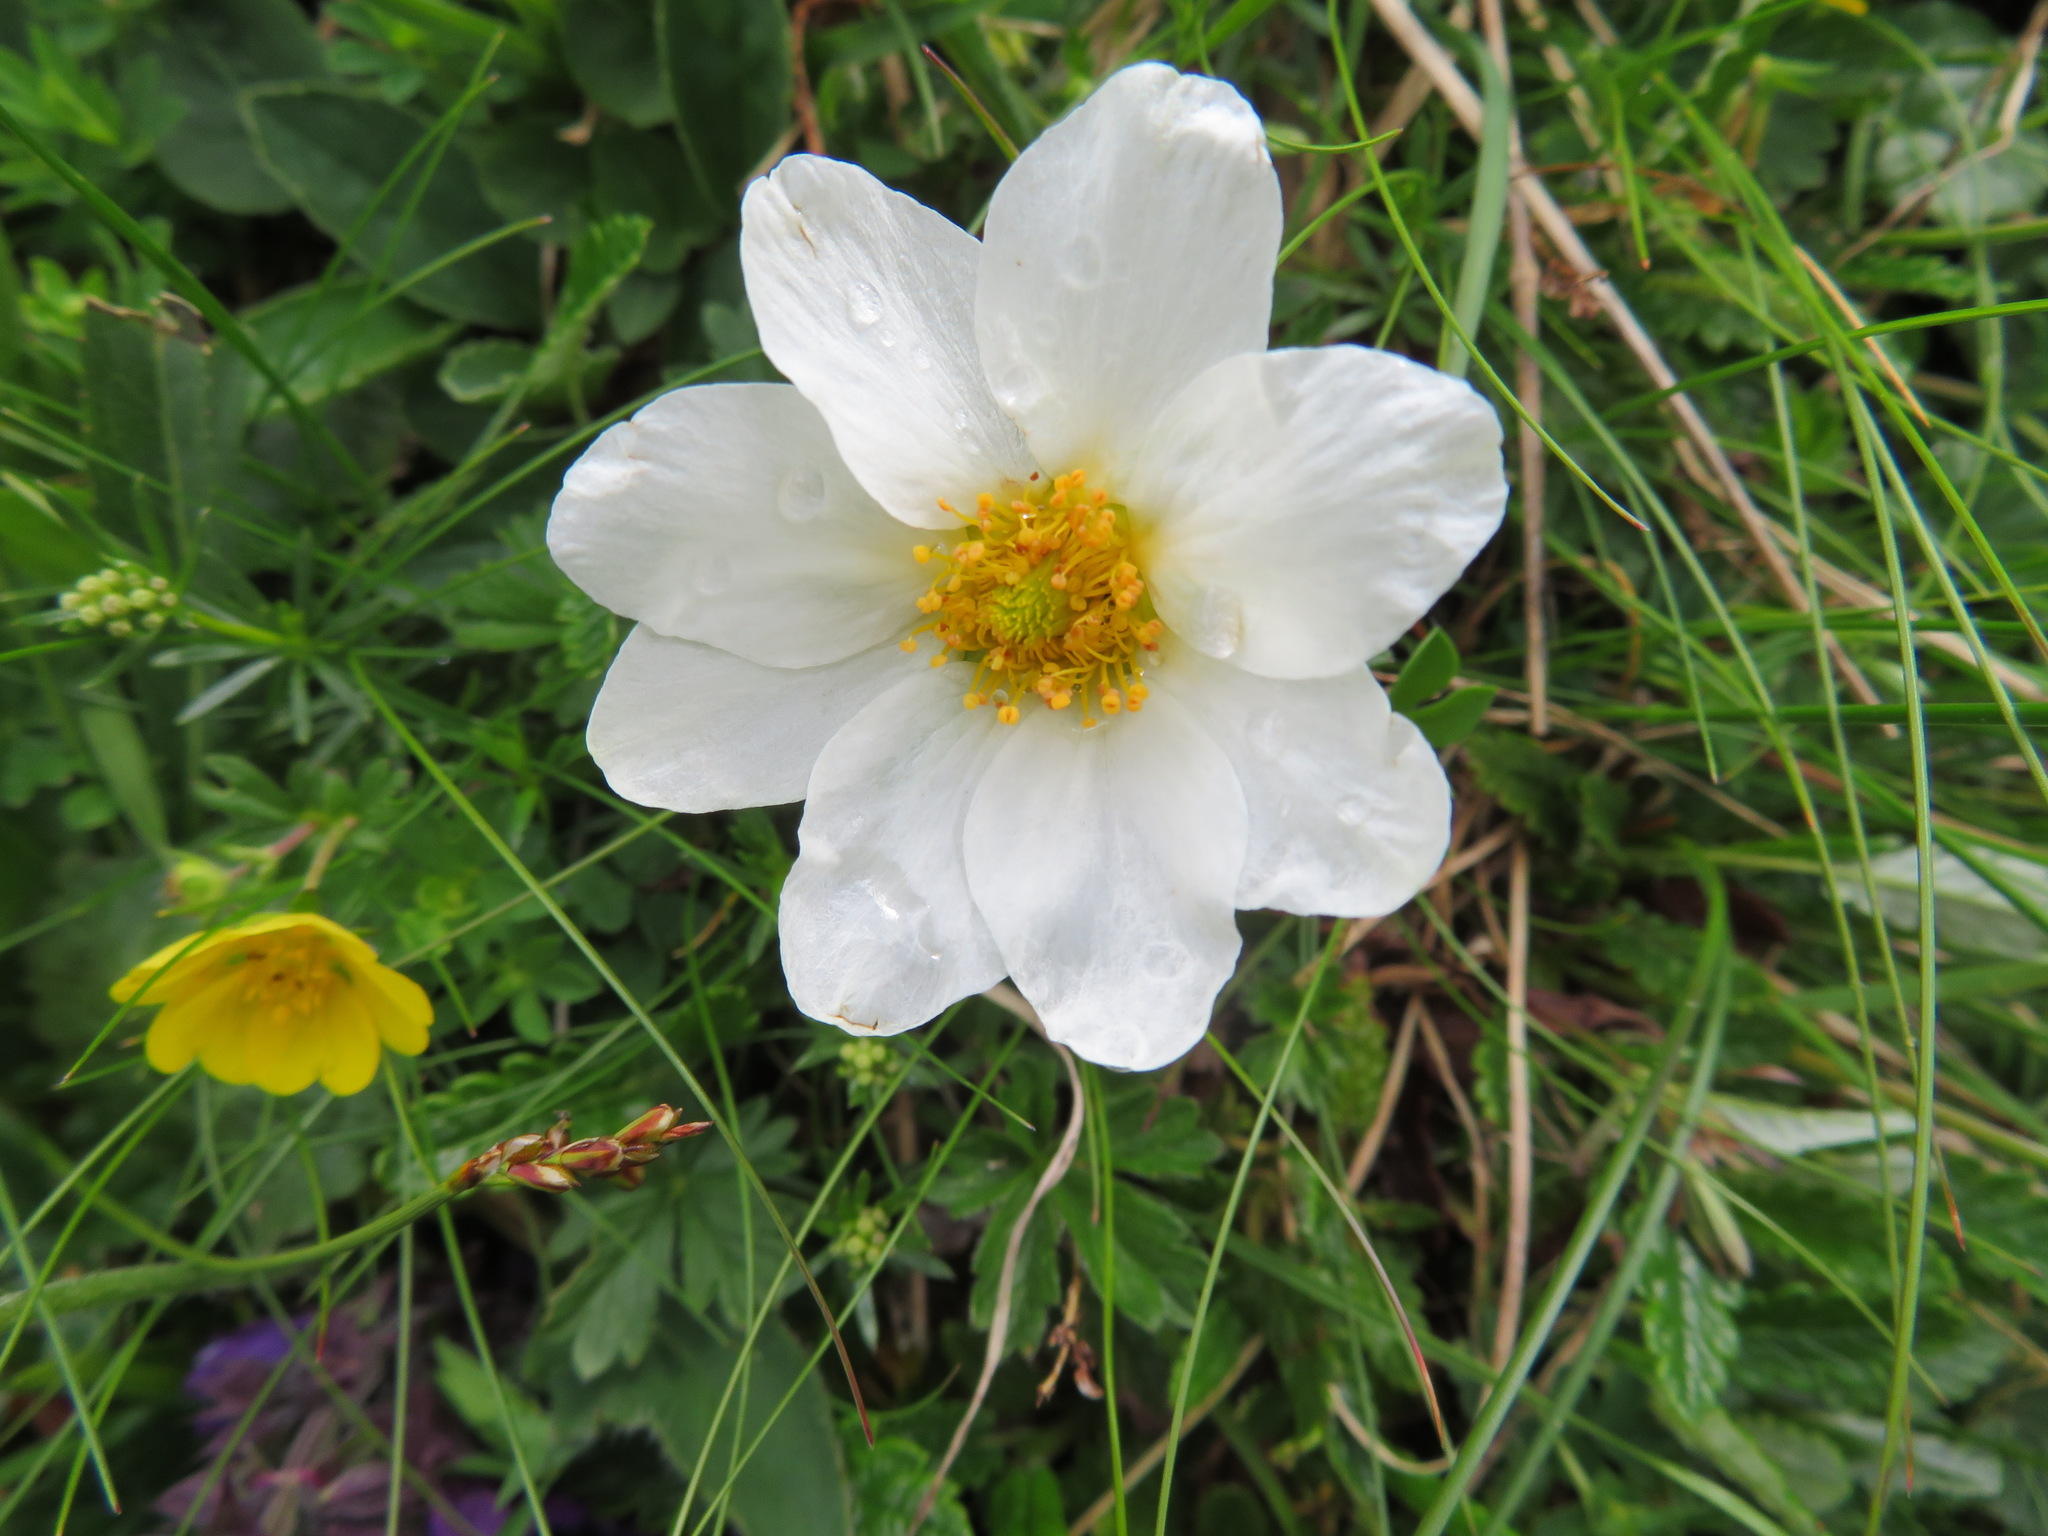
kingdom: Plantae
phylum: Tracheophyta
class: Magnoliopsida
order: Rosales
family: Rosaceae
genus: Dryas
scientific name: Dryas octopetala
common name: Eight-petal mountain-avens
